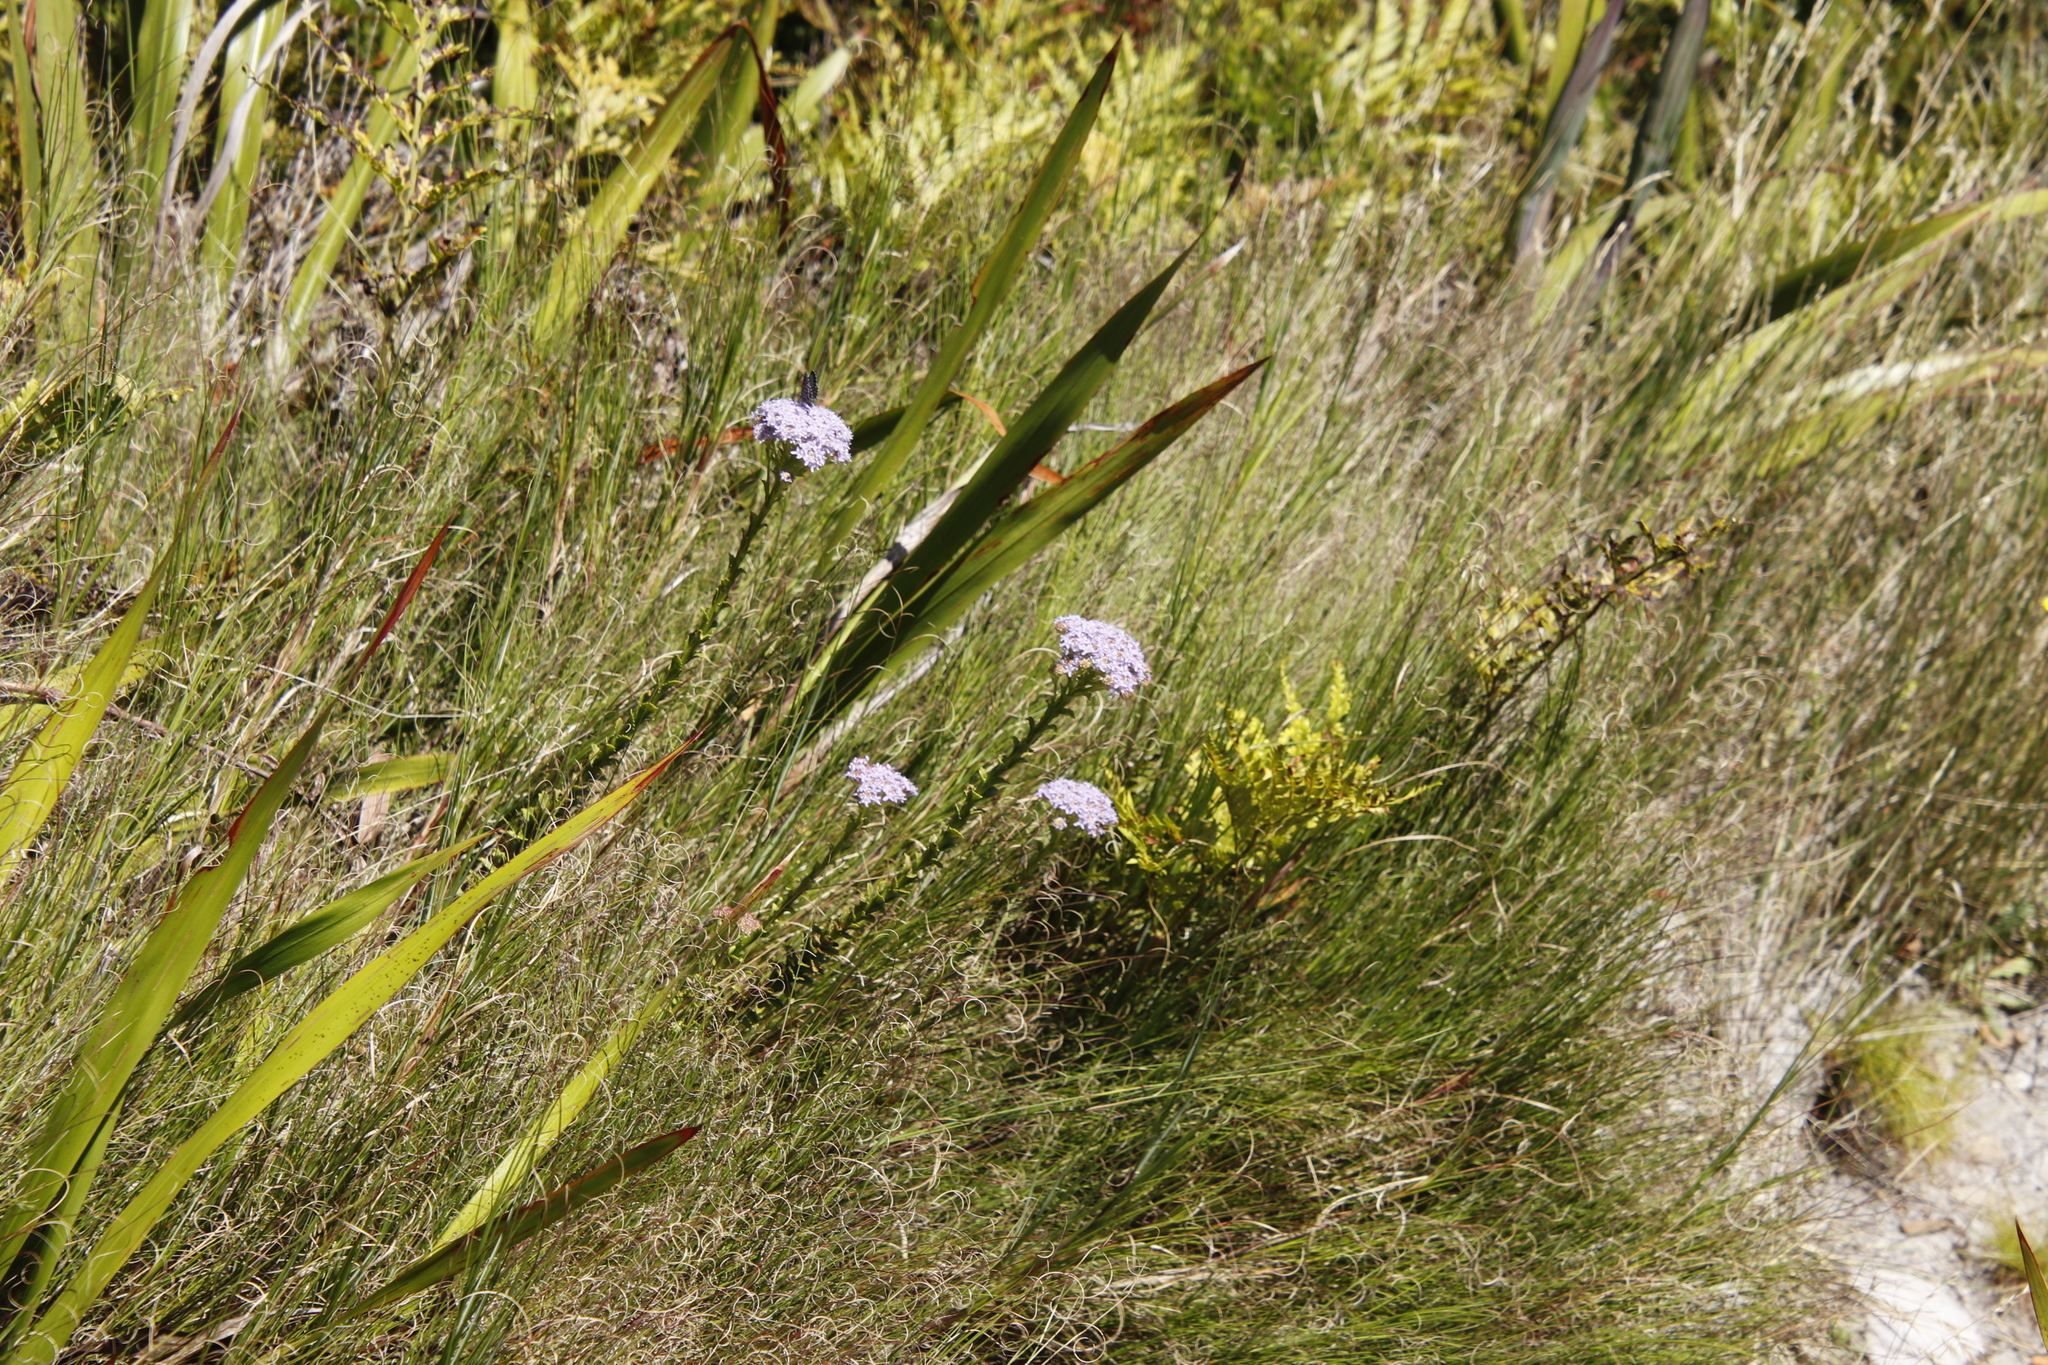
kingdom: Plantae
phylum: Tracheophyta
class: Magnoliopsida
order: Lamiales
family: Scrophulariaceae
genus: Pseudoselago
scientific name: Pseudoselago serrata
